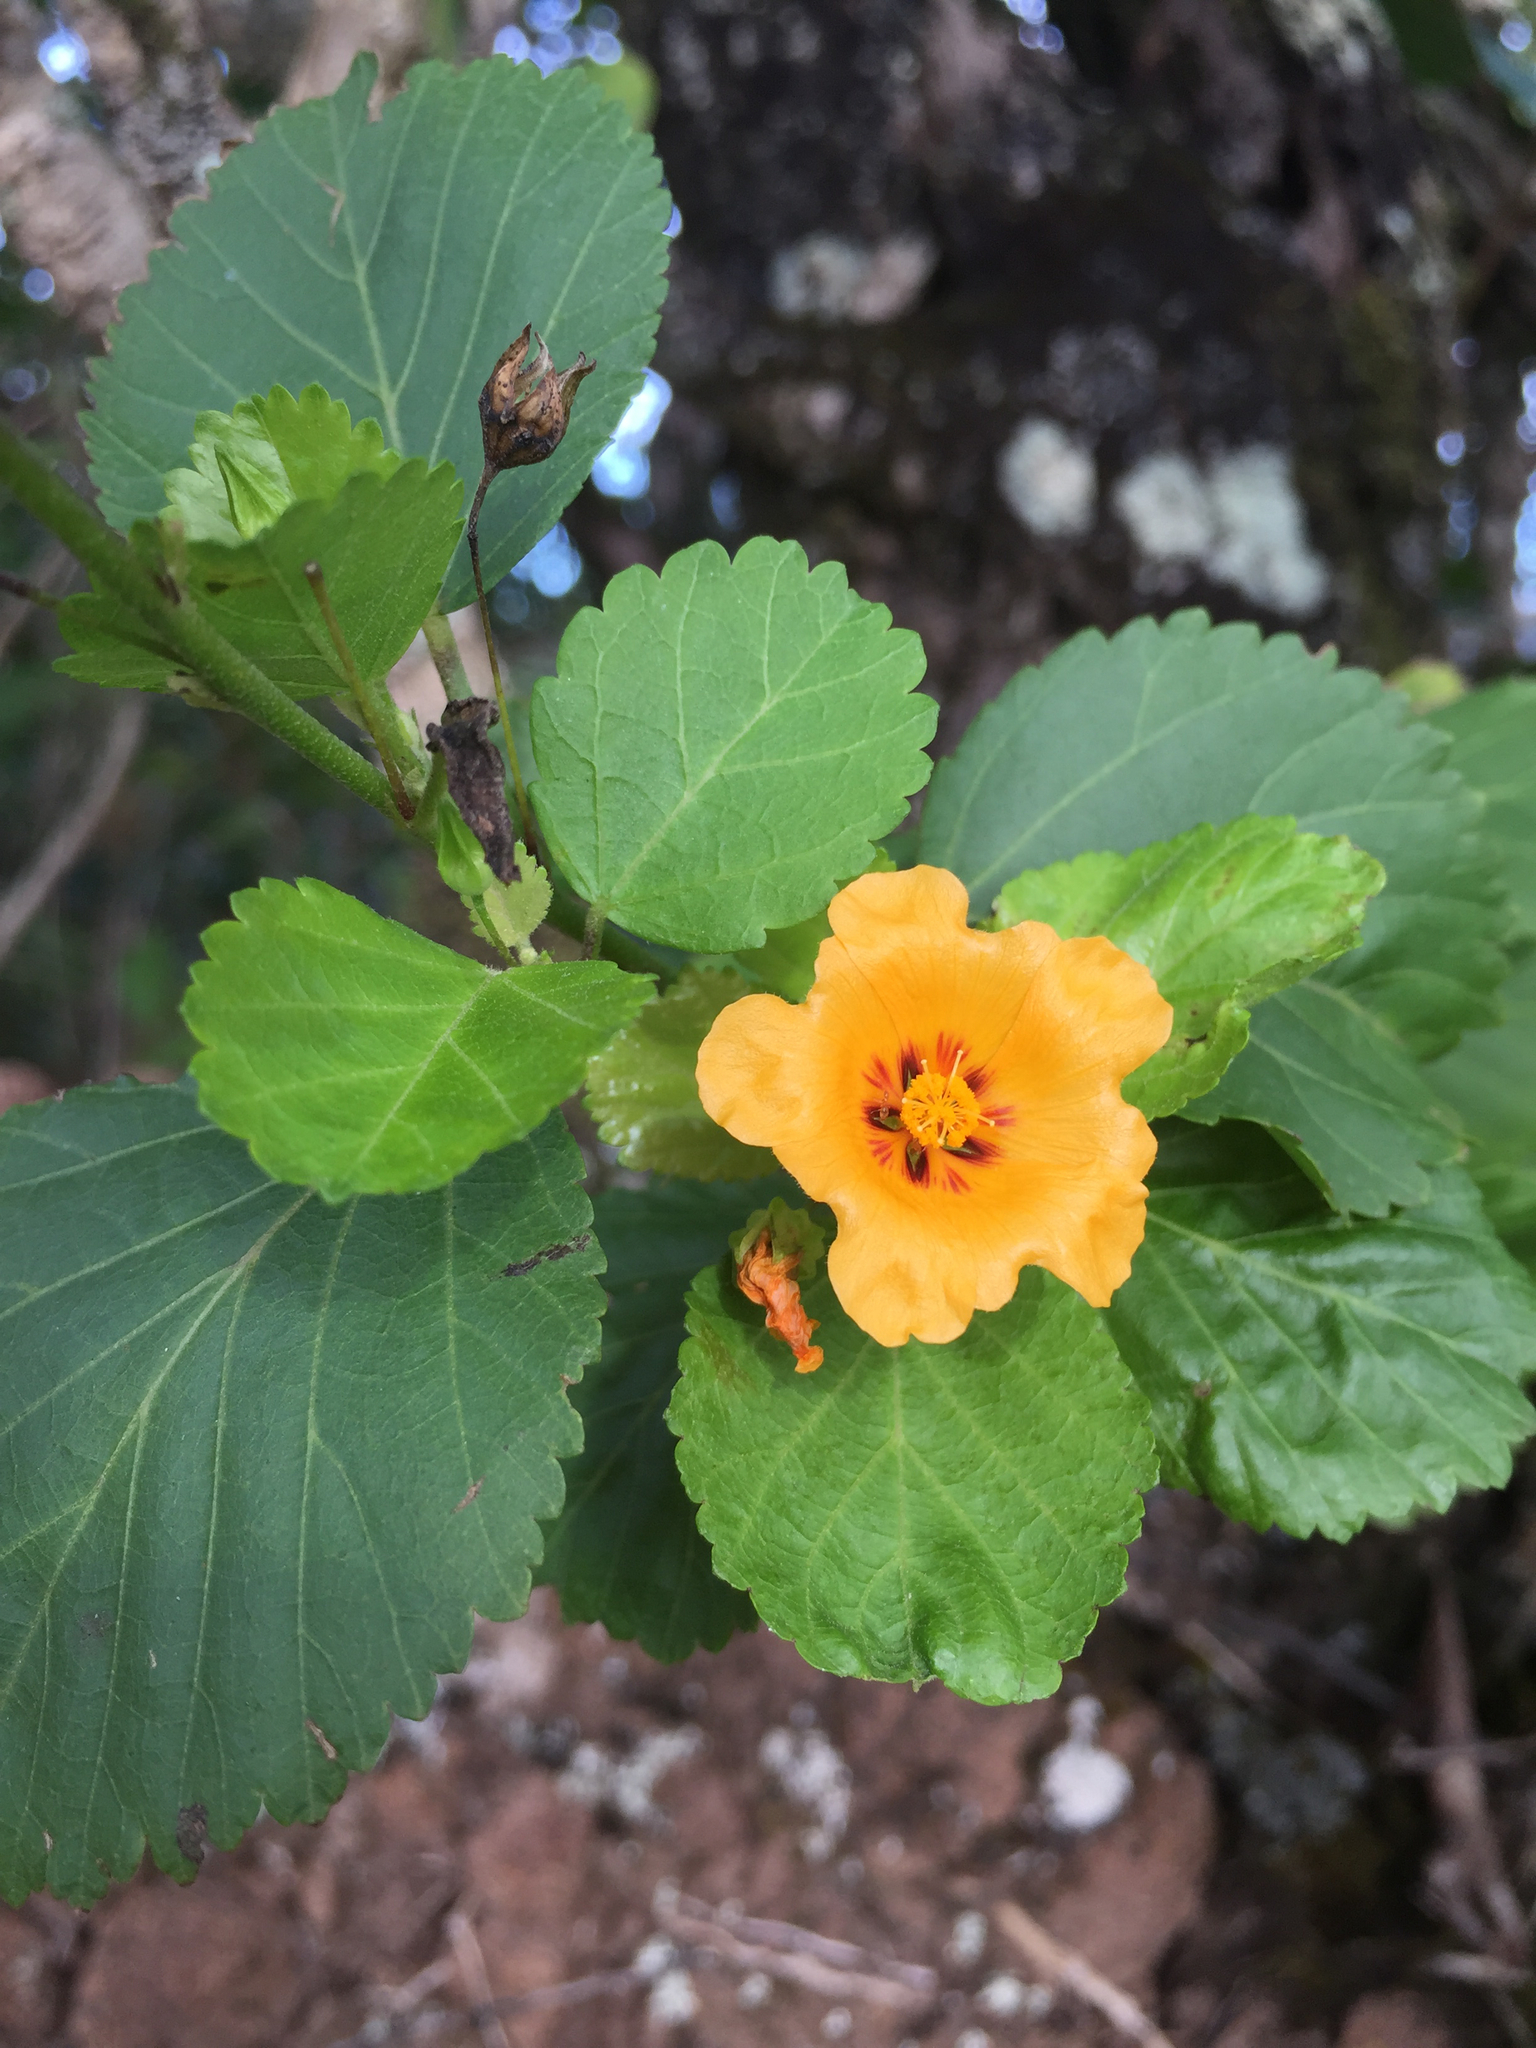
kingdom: Plantae
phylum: Tracheophyta
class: Magnoliopsida
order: Malvales
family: Malvaceae
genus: Sida
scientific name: Sida fallax
